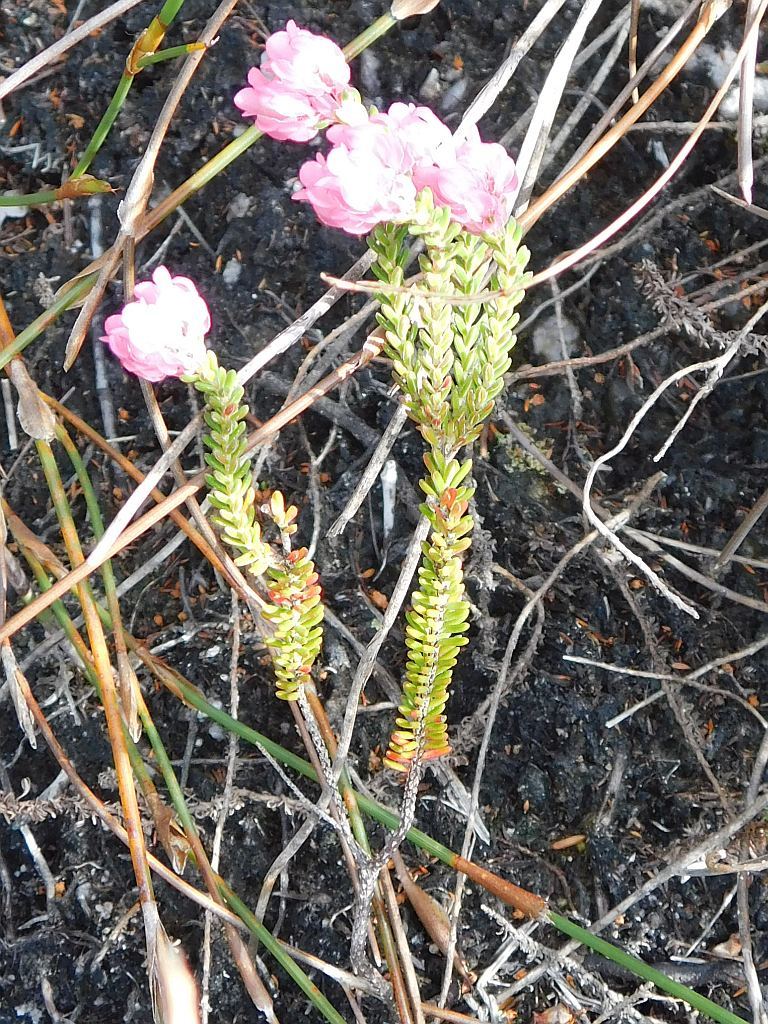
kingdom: Plantae
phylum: Tracheophyta
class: Magnoliopsida
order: Ericales
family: Ericaceae
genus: Erica
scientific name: Erica tegulifolia
